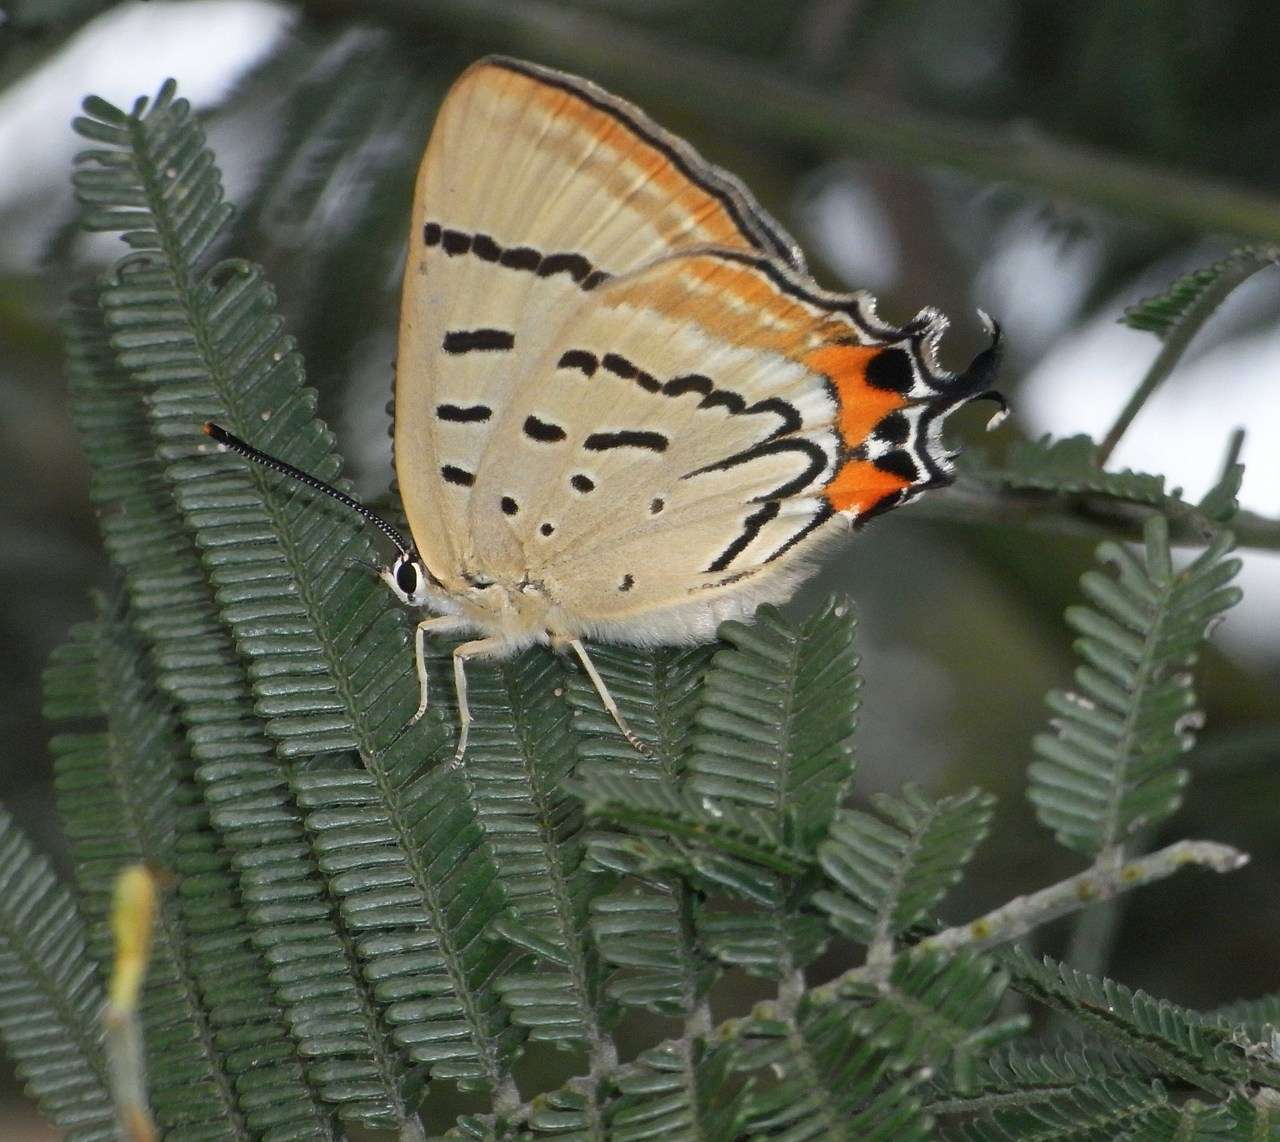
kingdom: Animalia
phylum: Arthropoda
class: Insecta
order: Lepidoptera
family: Lycaenidae
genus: Jalmenus
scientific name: Jalmenus evagoras
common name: Common imperial blue
